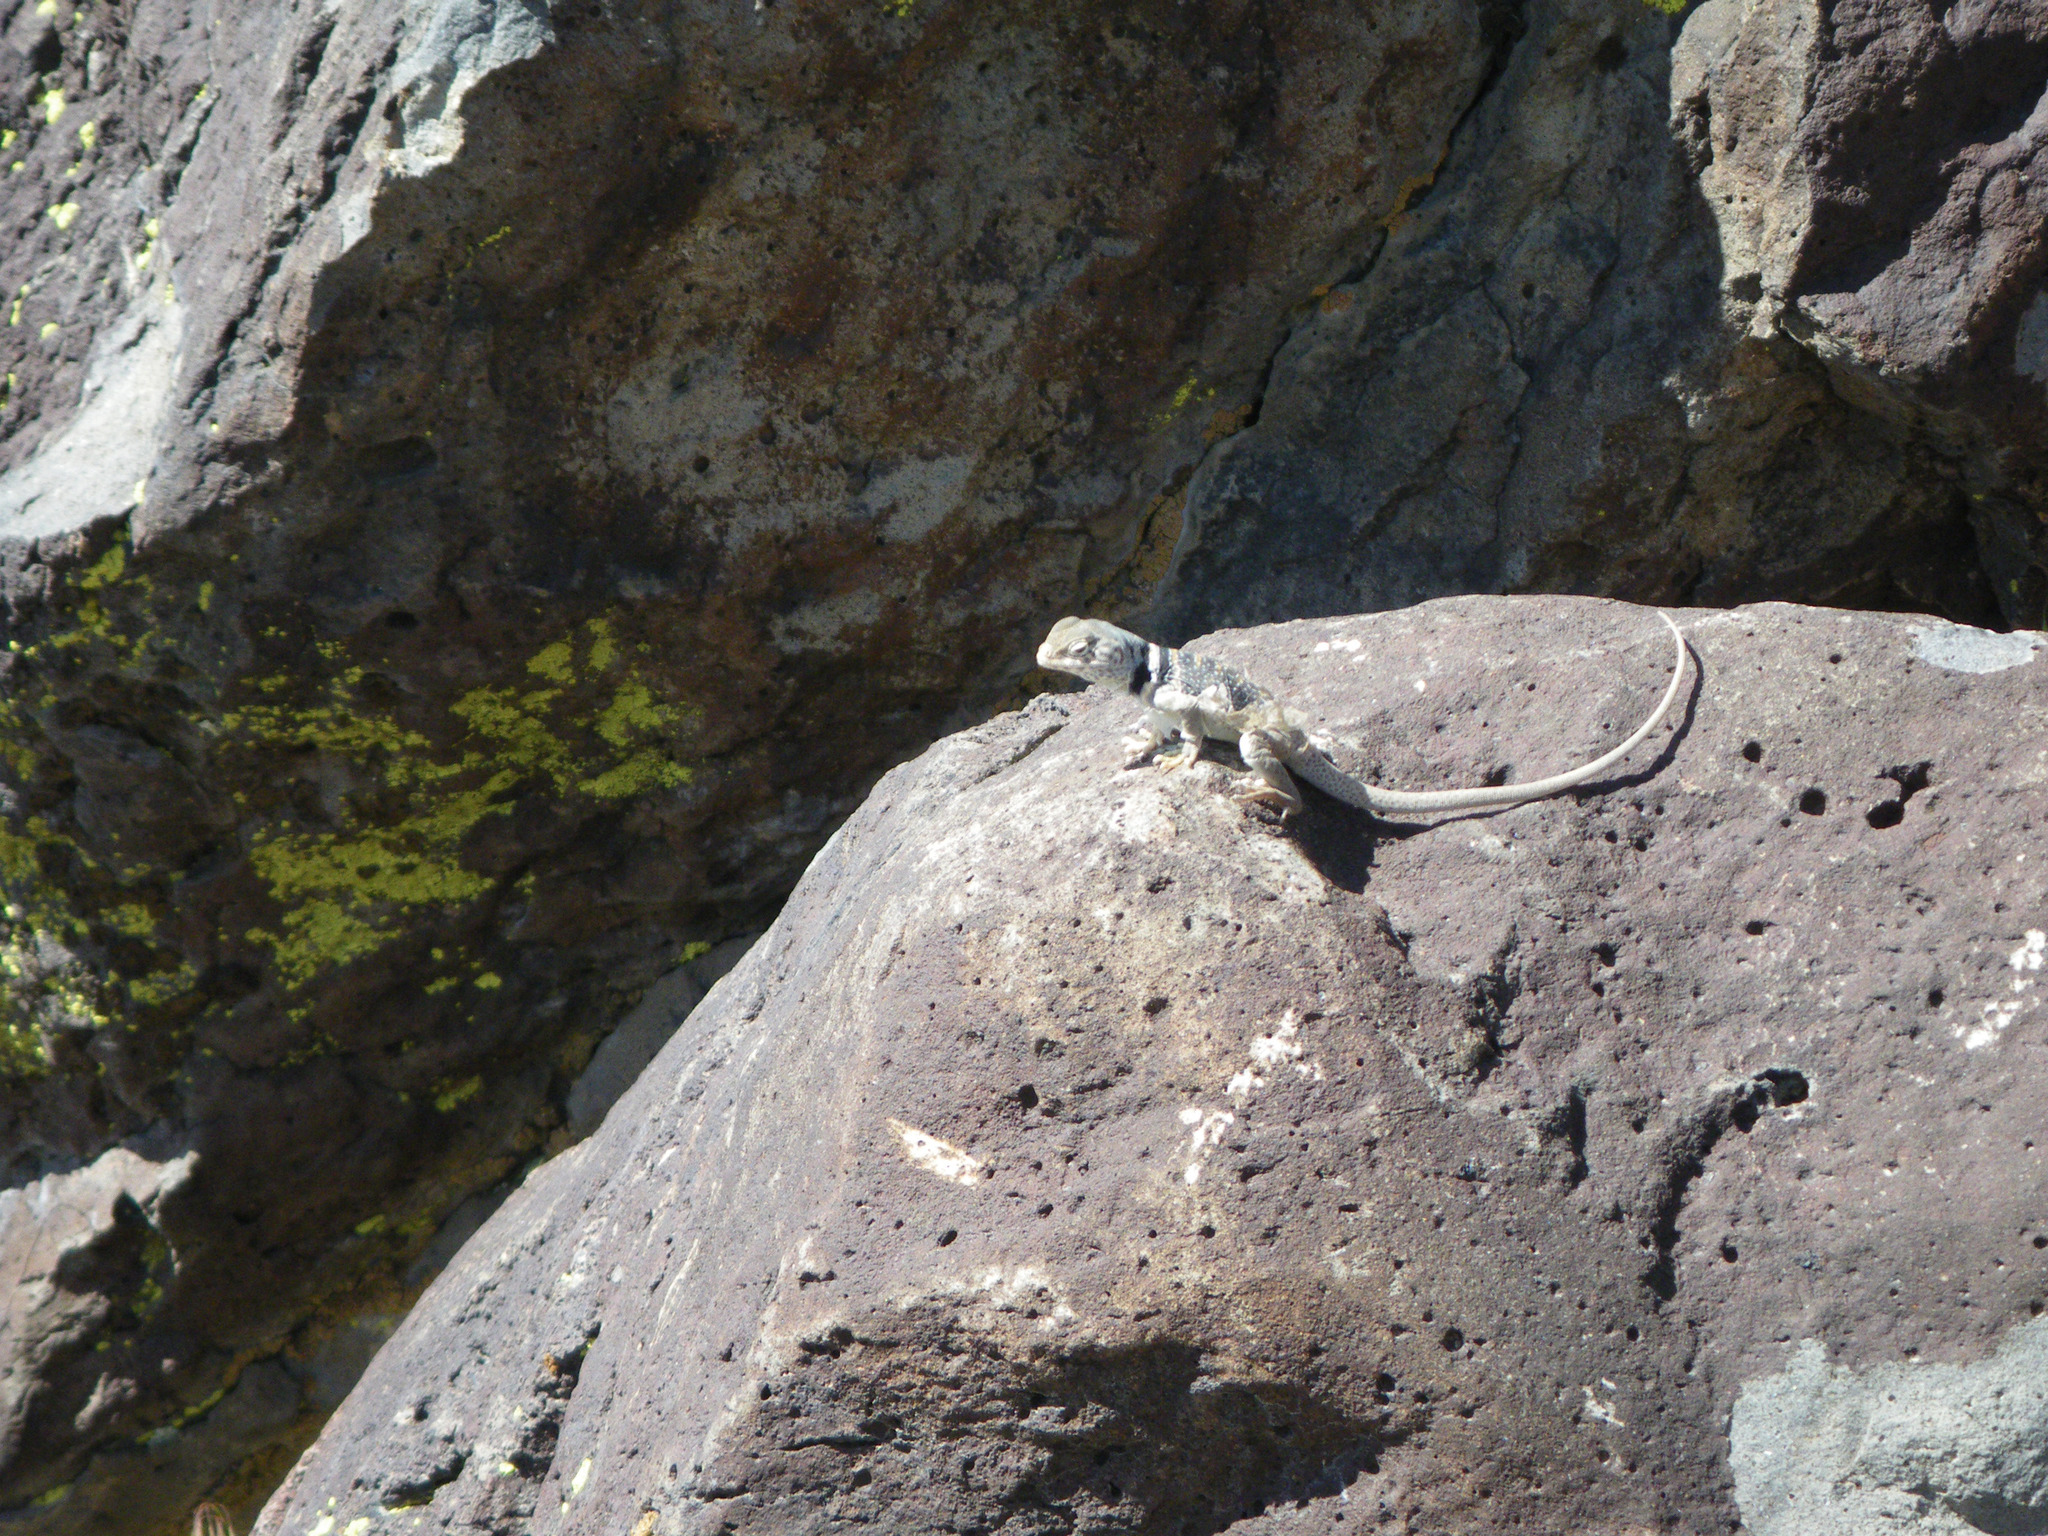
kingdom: Animalia
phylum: Chordata
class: Squamata
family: Crotaphytidae
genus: Crotaphytus
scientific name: Crotaphytus bicinctores
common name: Mojave black-collared lizard
